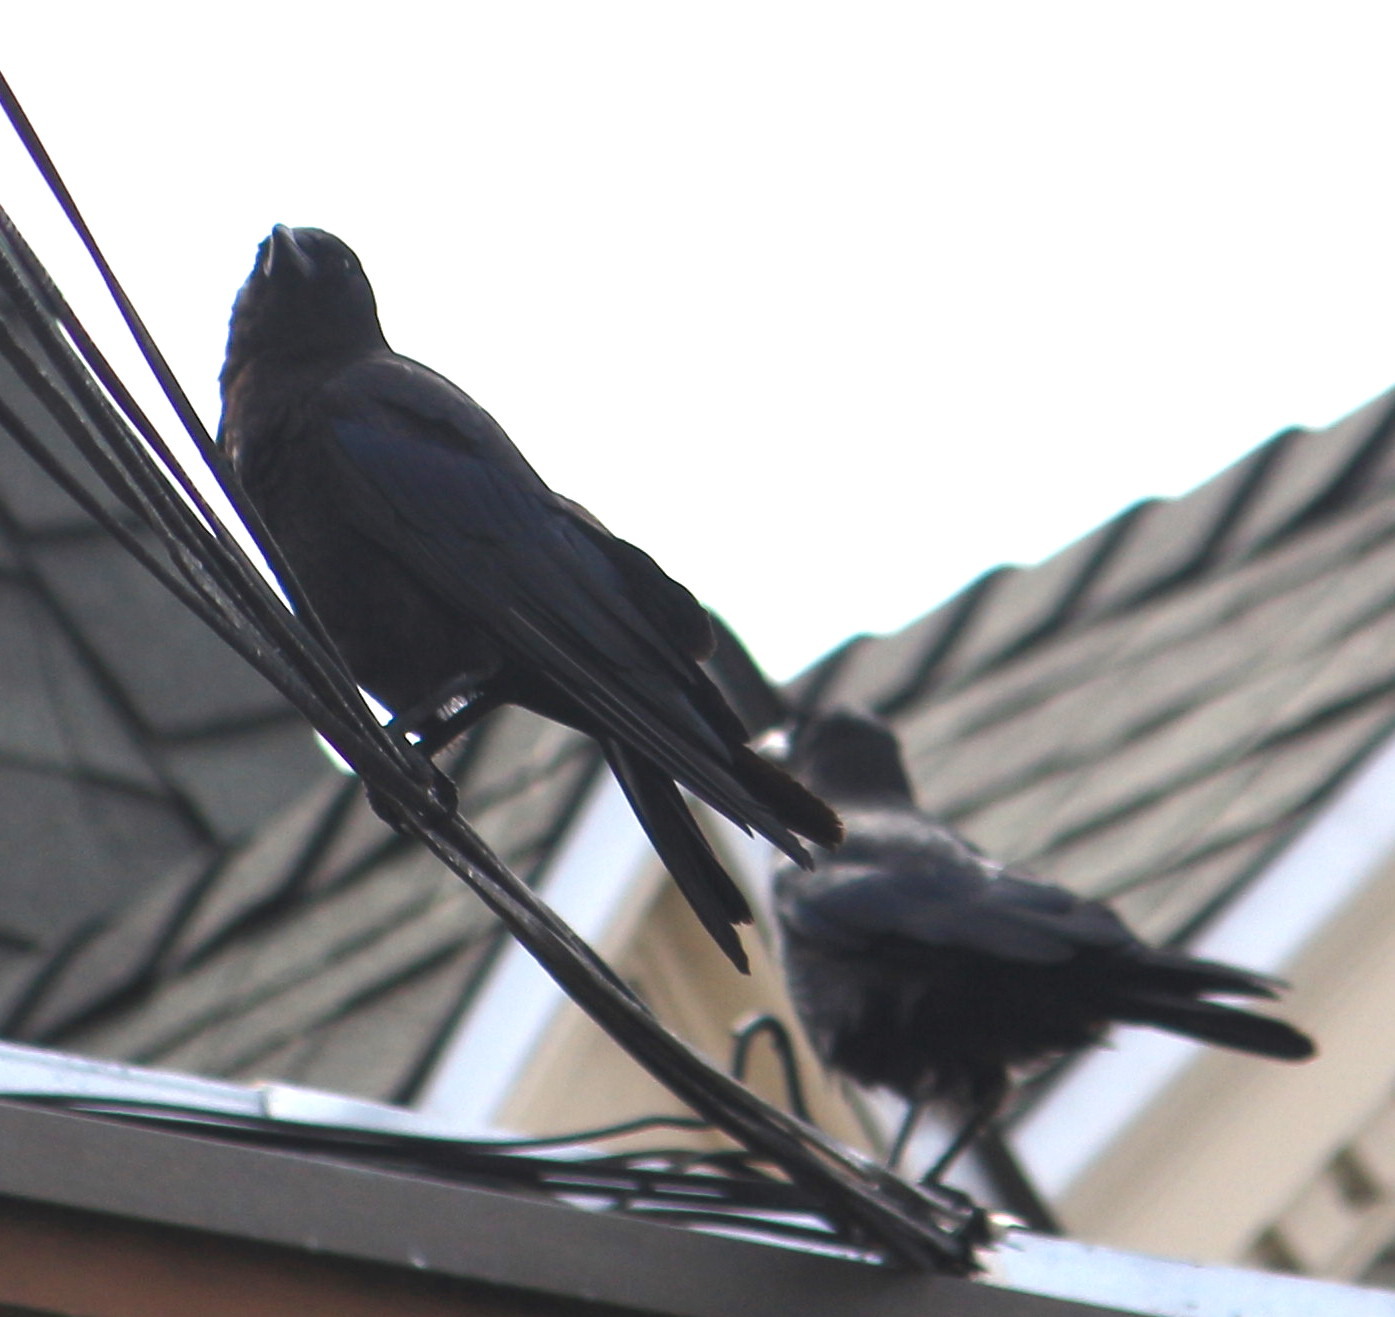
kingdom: Animalia
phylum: Chordata
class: Aves
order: Passeriformes
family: Corvidae
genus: Corvus
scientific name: Corvus brachyrhynchos
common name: American crow
